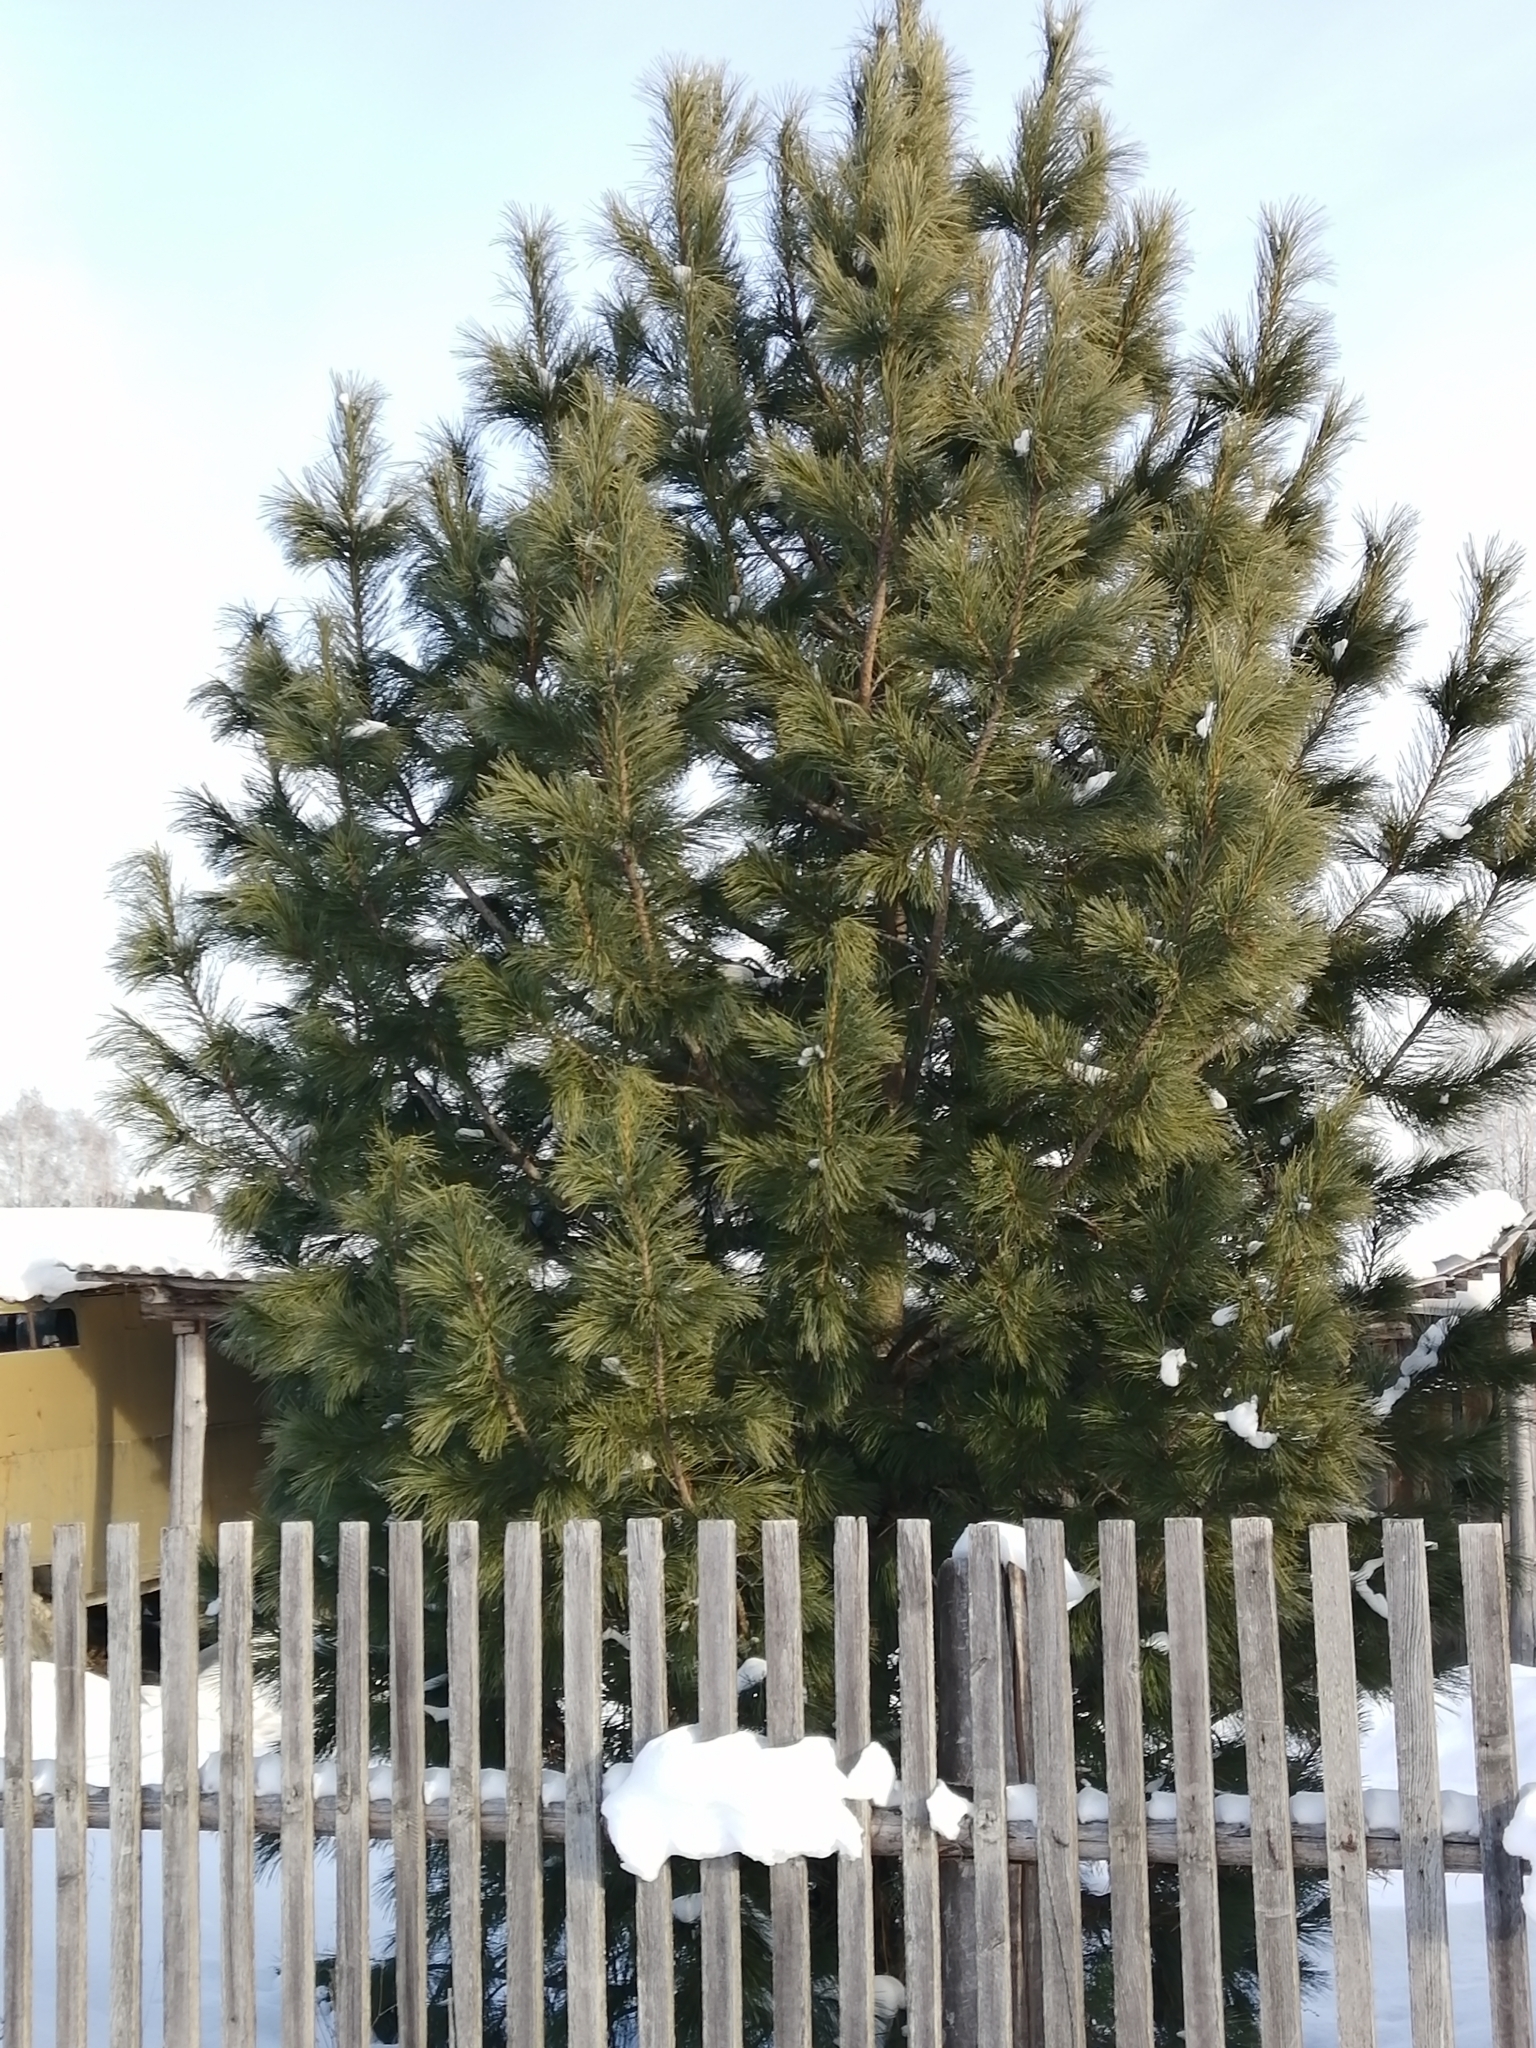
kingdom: Plantae
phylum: Tracheophyta
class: Pinopsida
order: Pinales
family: Pinaceae
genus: Pinus
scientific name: Pinus sibirica
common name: Siberian pine
